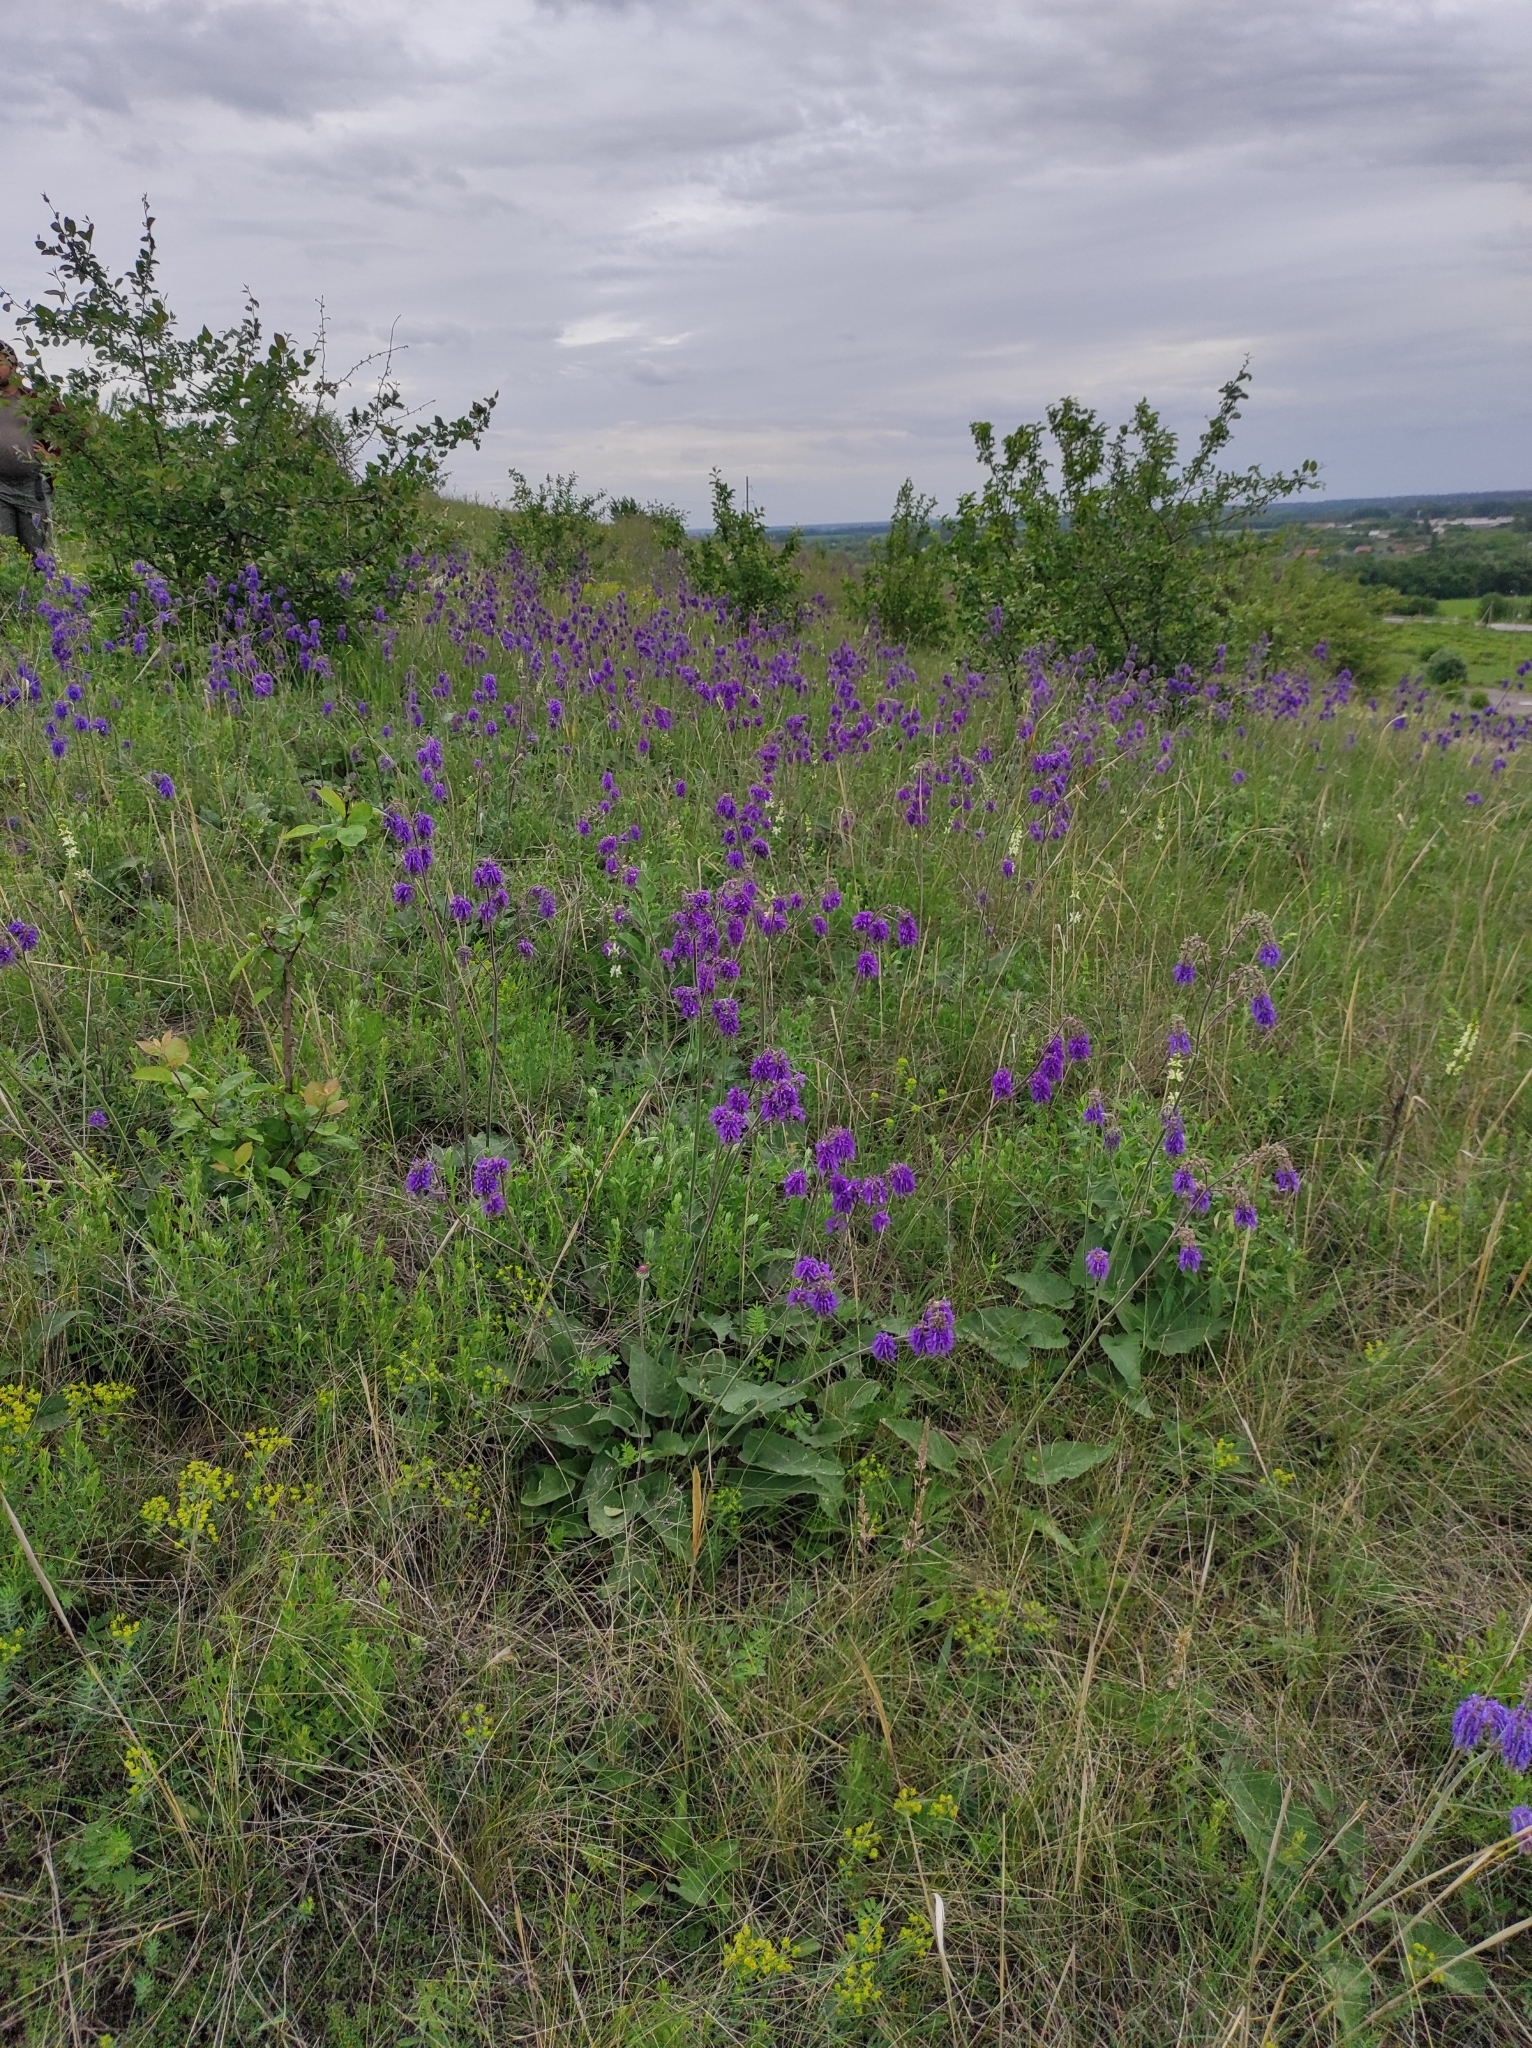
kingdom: Plantae
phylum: Tracheophyta
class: Magnoliopsida
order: Lamiales
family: Lamiaceae
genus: Salvia
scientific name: Salvia nutans
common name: Nodding sage
